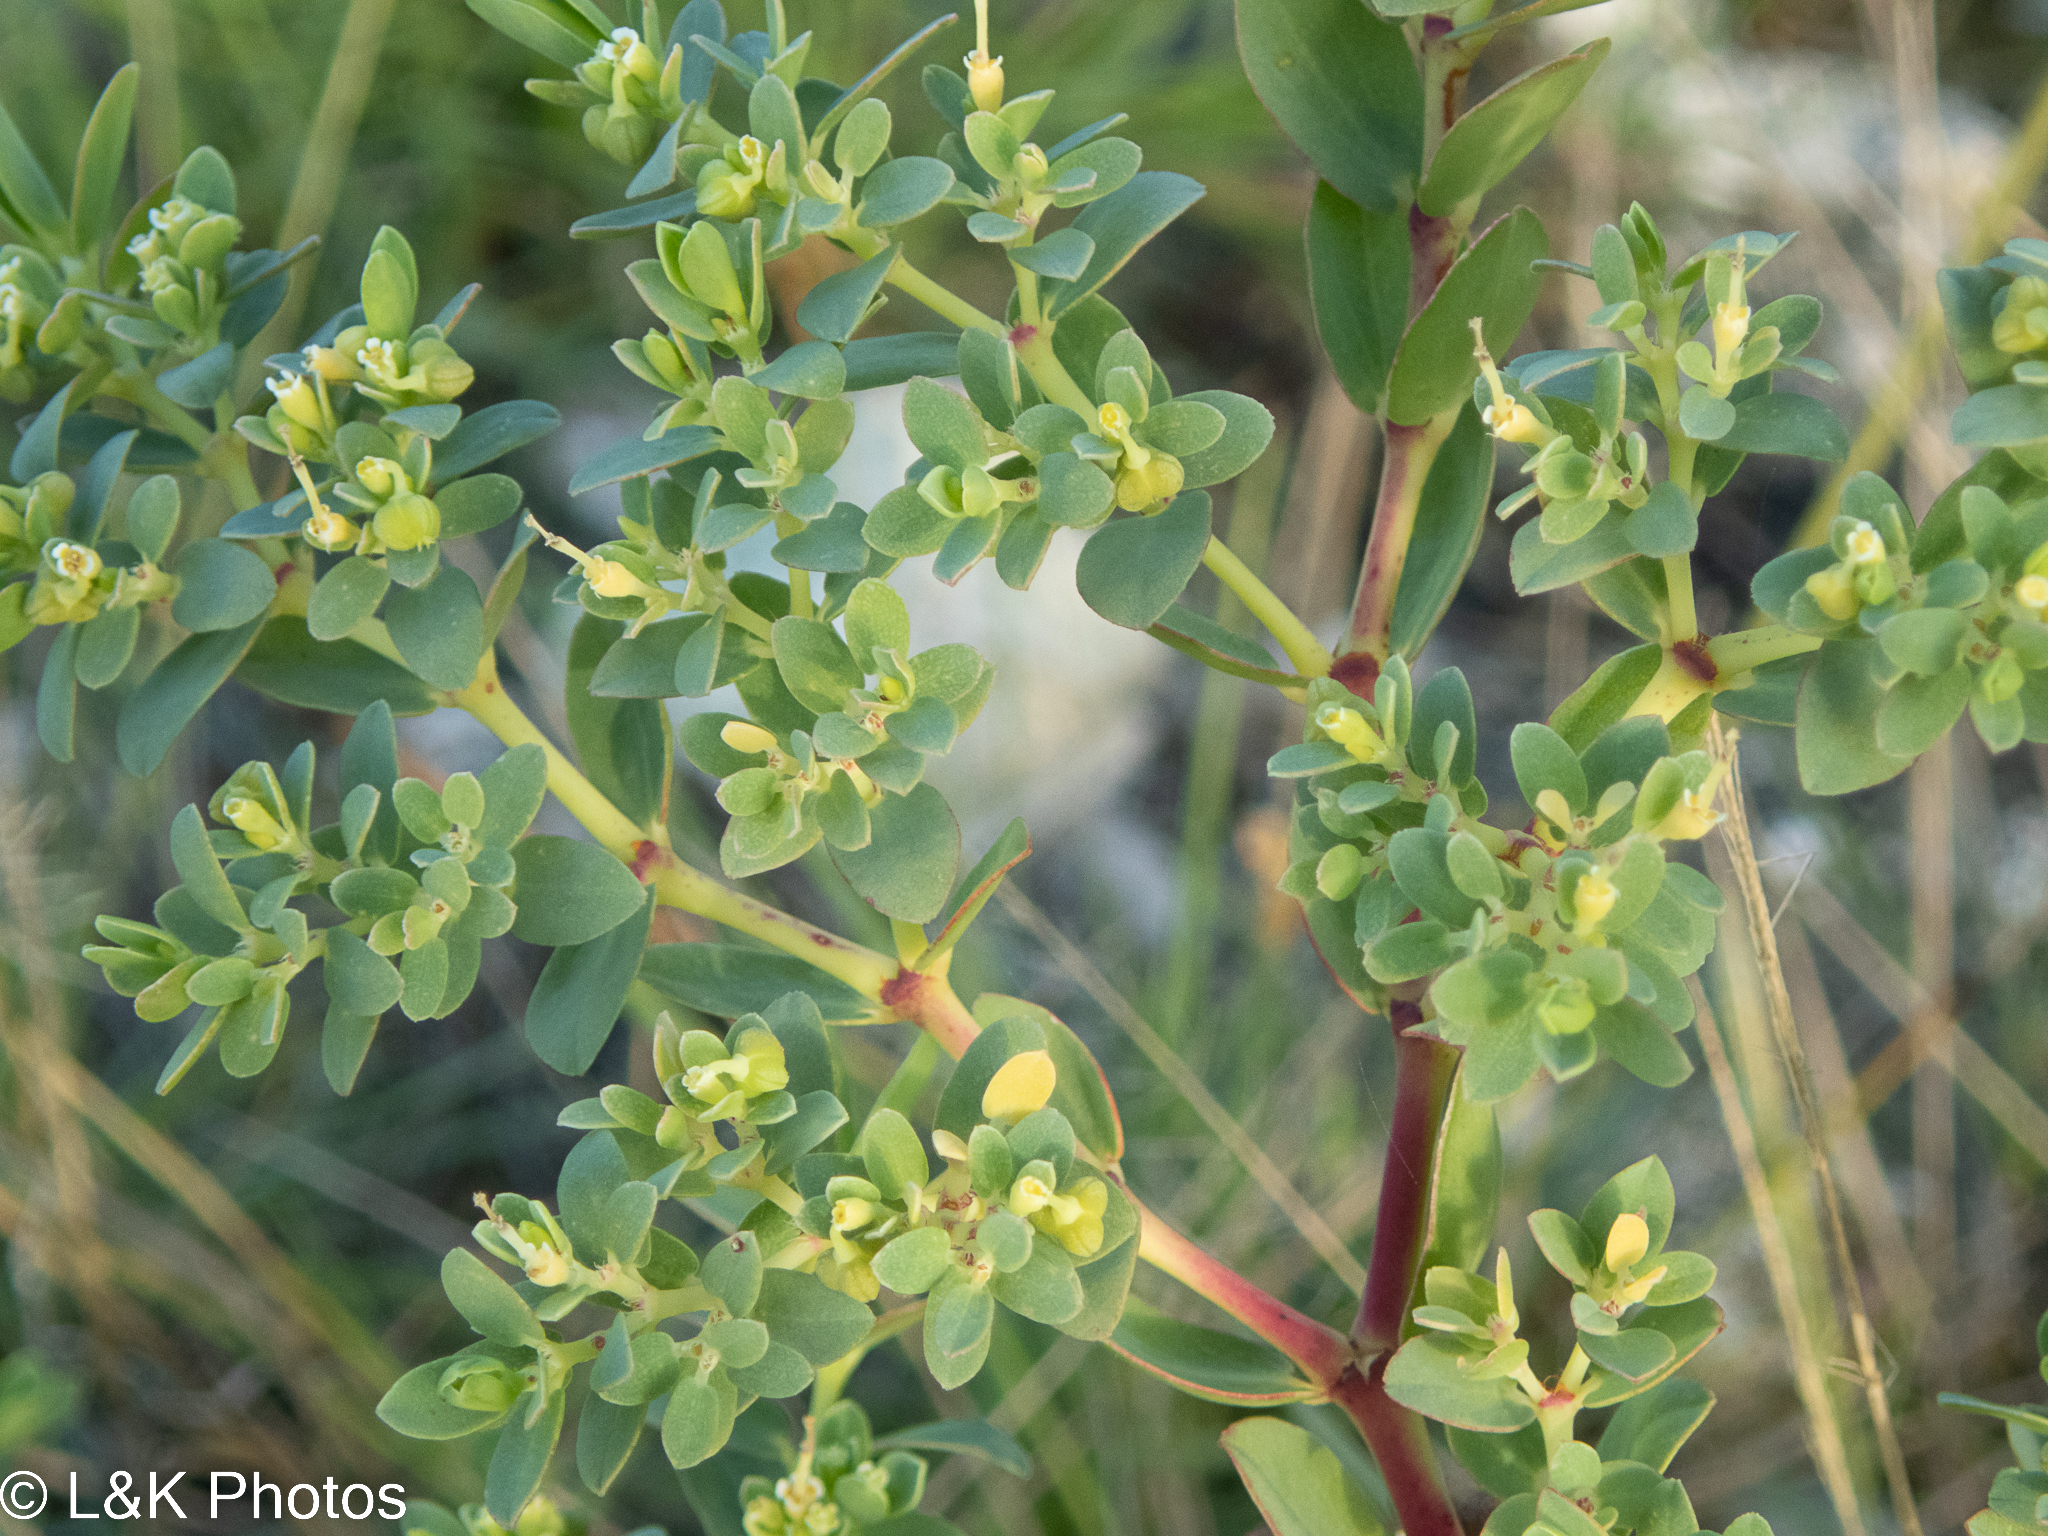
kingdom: Plantae
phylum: Tracheophyta
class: Magnoliopsida
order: Malpighiales
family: Euphorbiaceae
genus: Euphorbia
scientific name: Euphorbia mesembryanthemifolia
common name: Coastal beach sandmat
